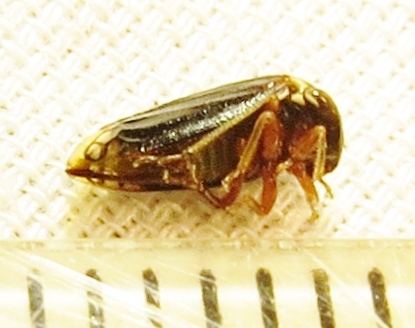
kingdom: Animalia
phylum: Arthropoda
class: Insecta
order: Hemiptera
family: Membracidae
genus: Acutalis
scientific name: Acutalis tartarea
